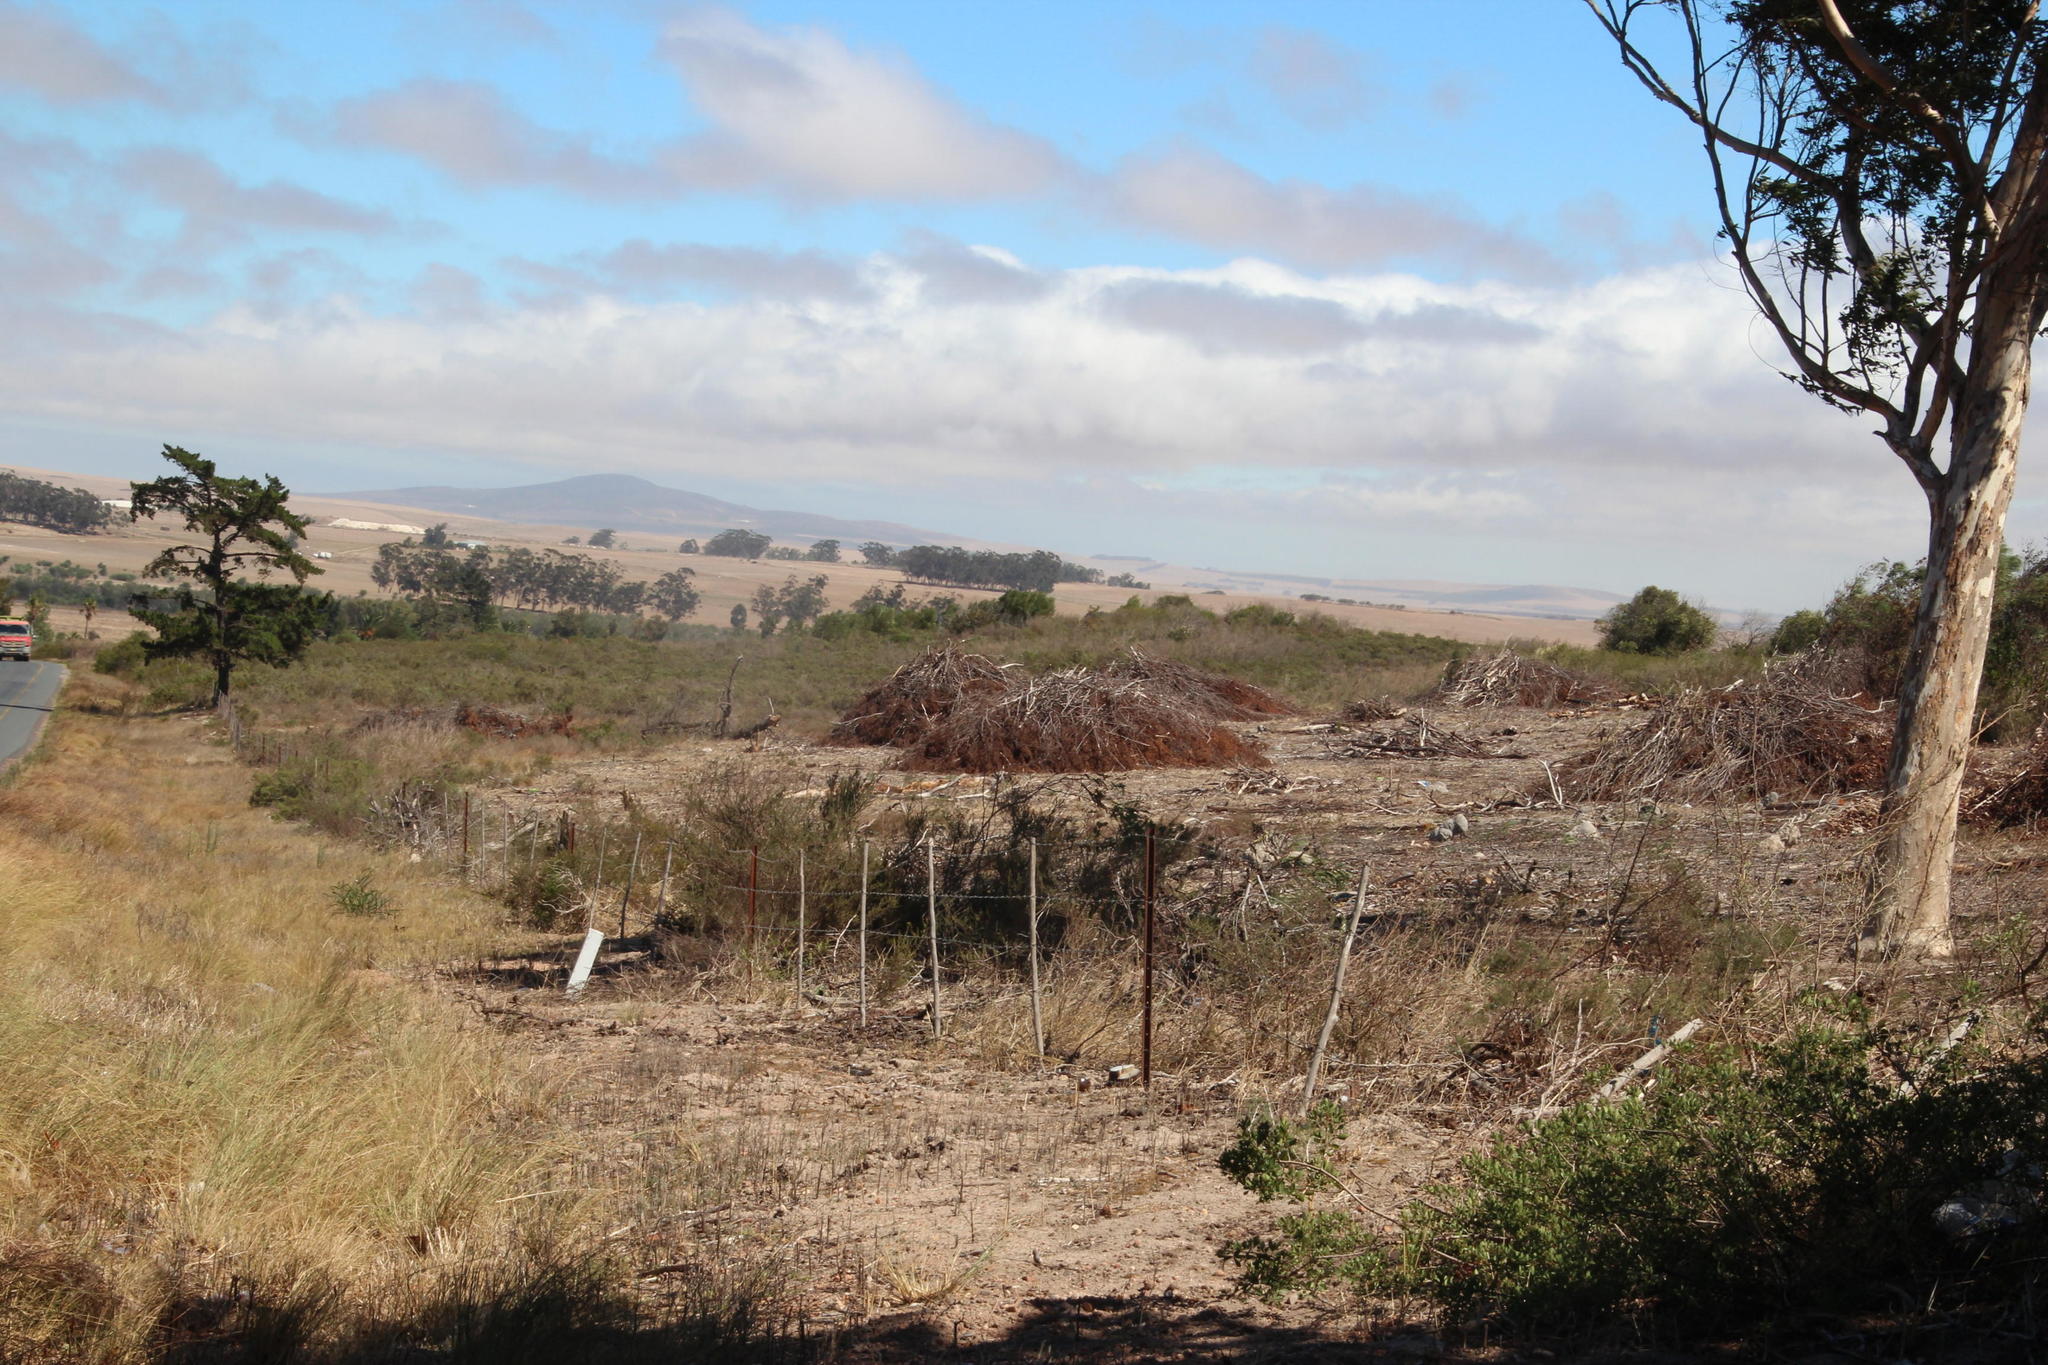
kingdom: Plantae
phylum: Tracheophyta
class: Magnoliopsida
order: Fabales
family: Fabaceae
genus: Acacia
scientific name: Acacia saligna
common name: Orange wattle
